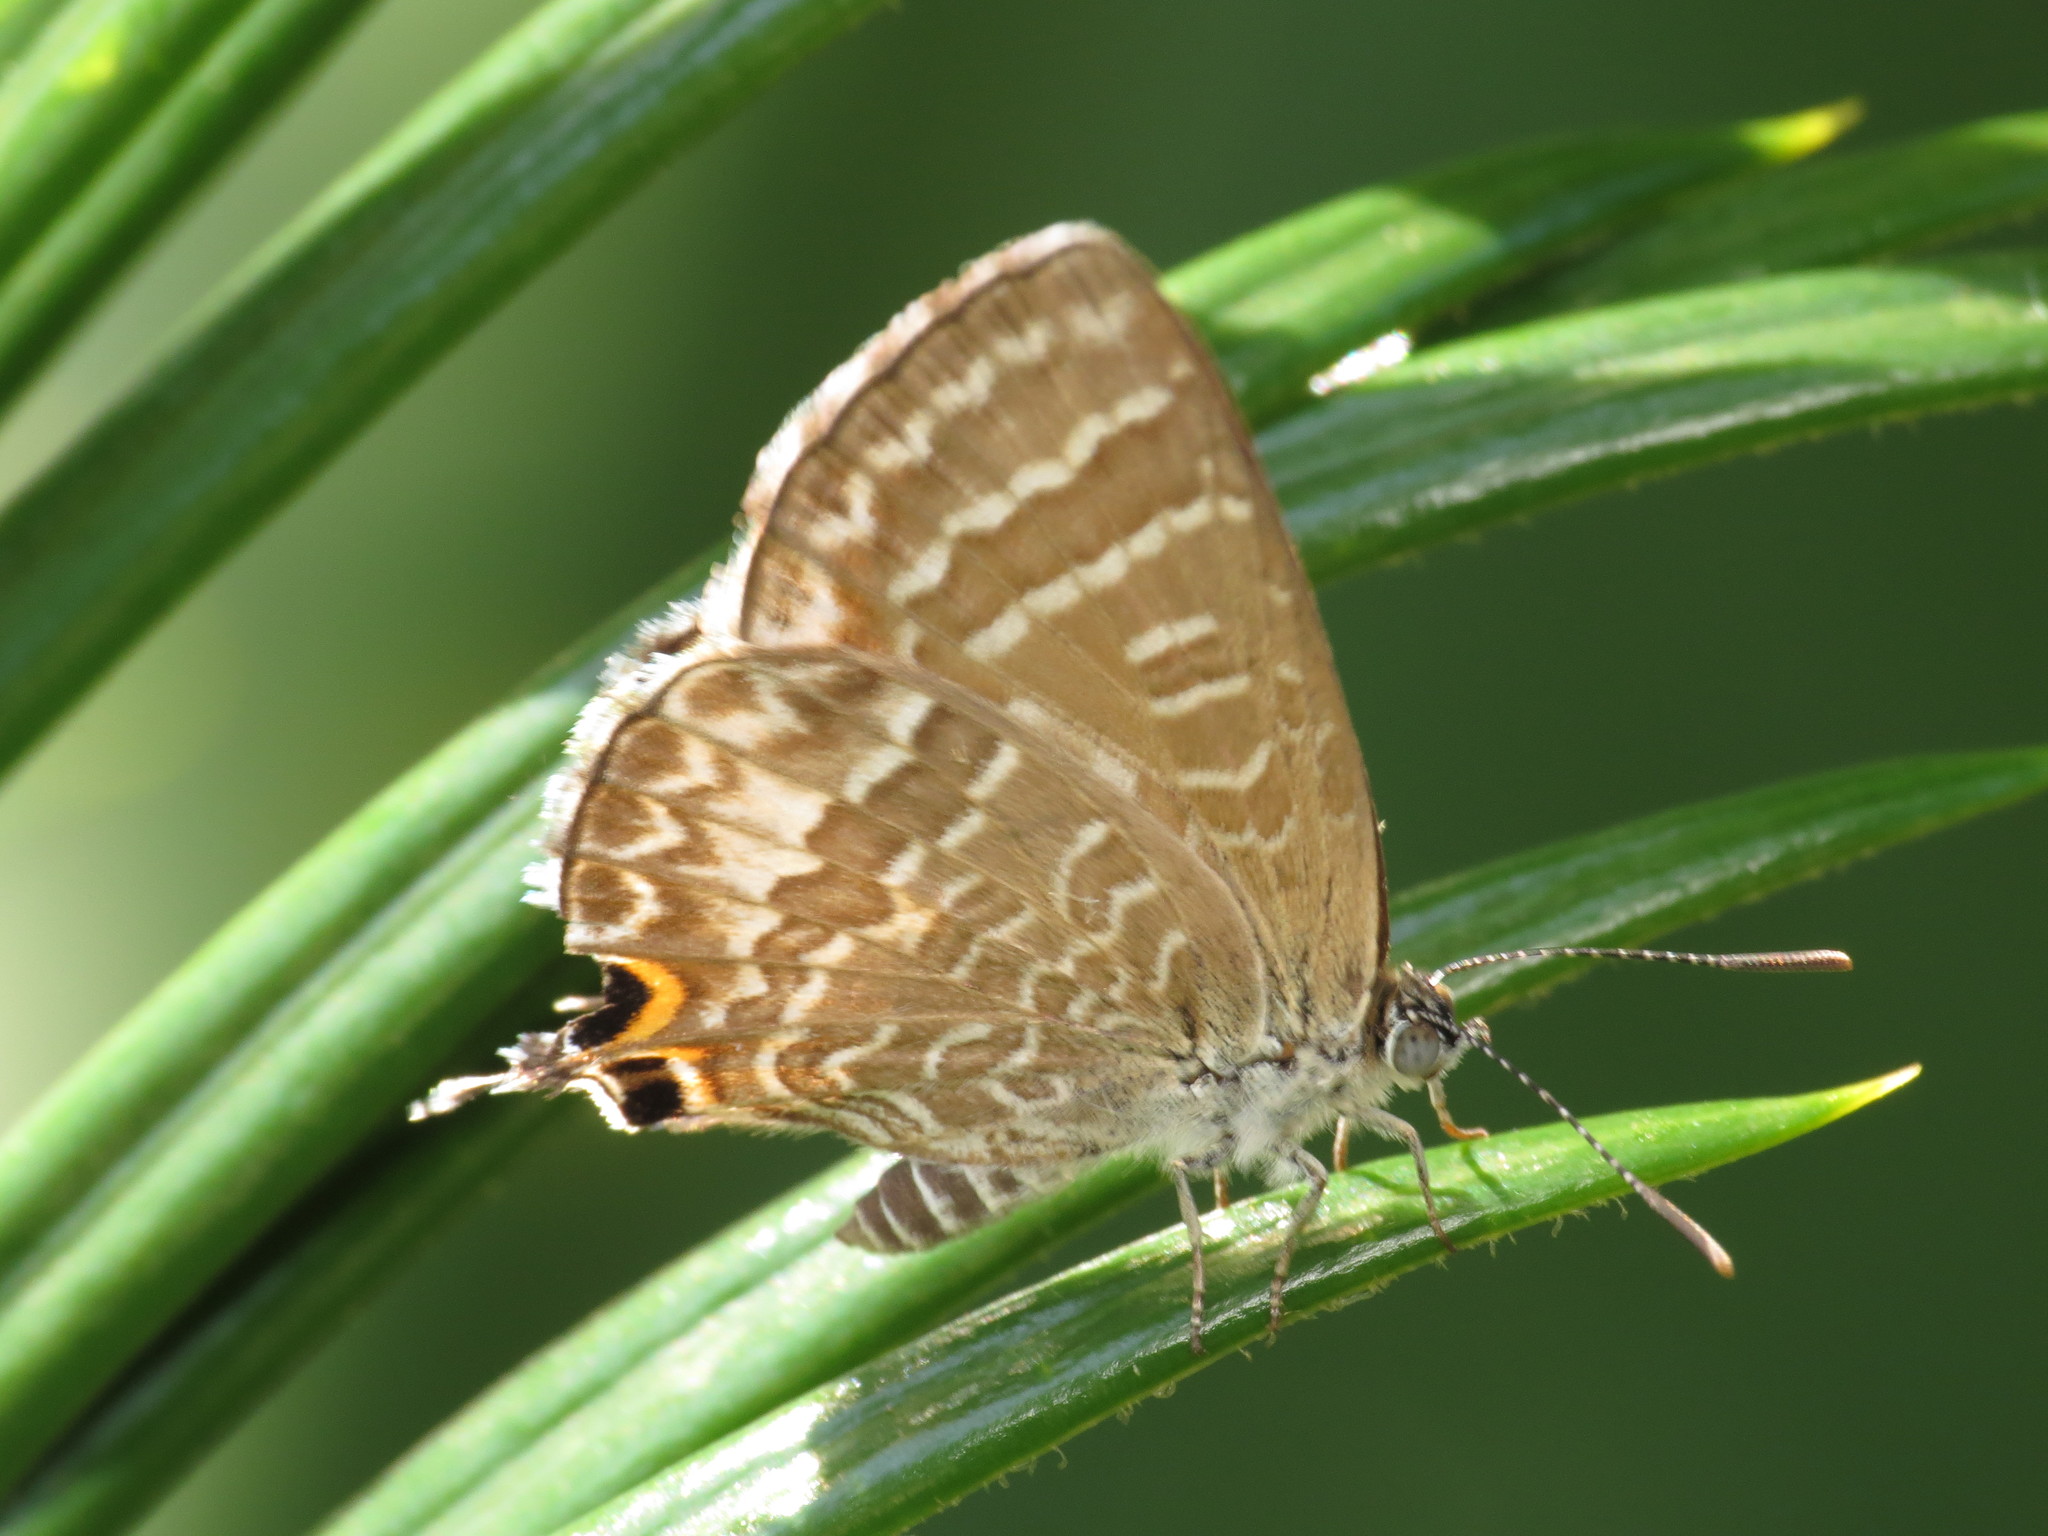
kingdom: Animalia
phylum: Arthropoda
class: Insecta
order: Lepidoptera
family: Lycaenidae
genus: Theclinesthes
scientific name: Theclinesthes onycha
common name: Cycad blue
